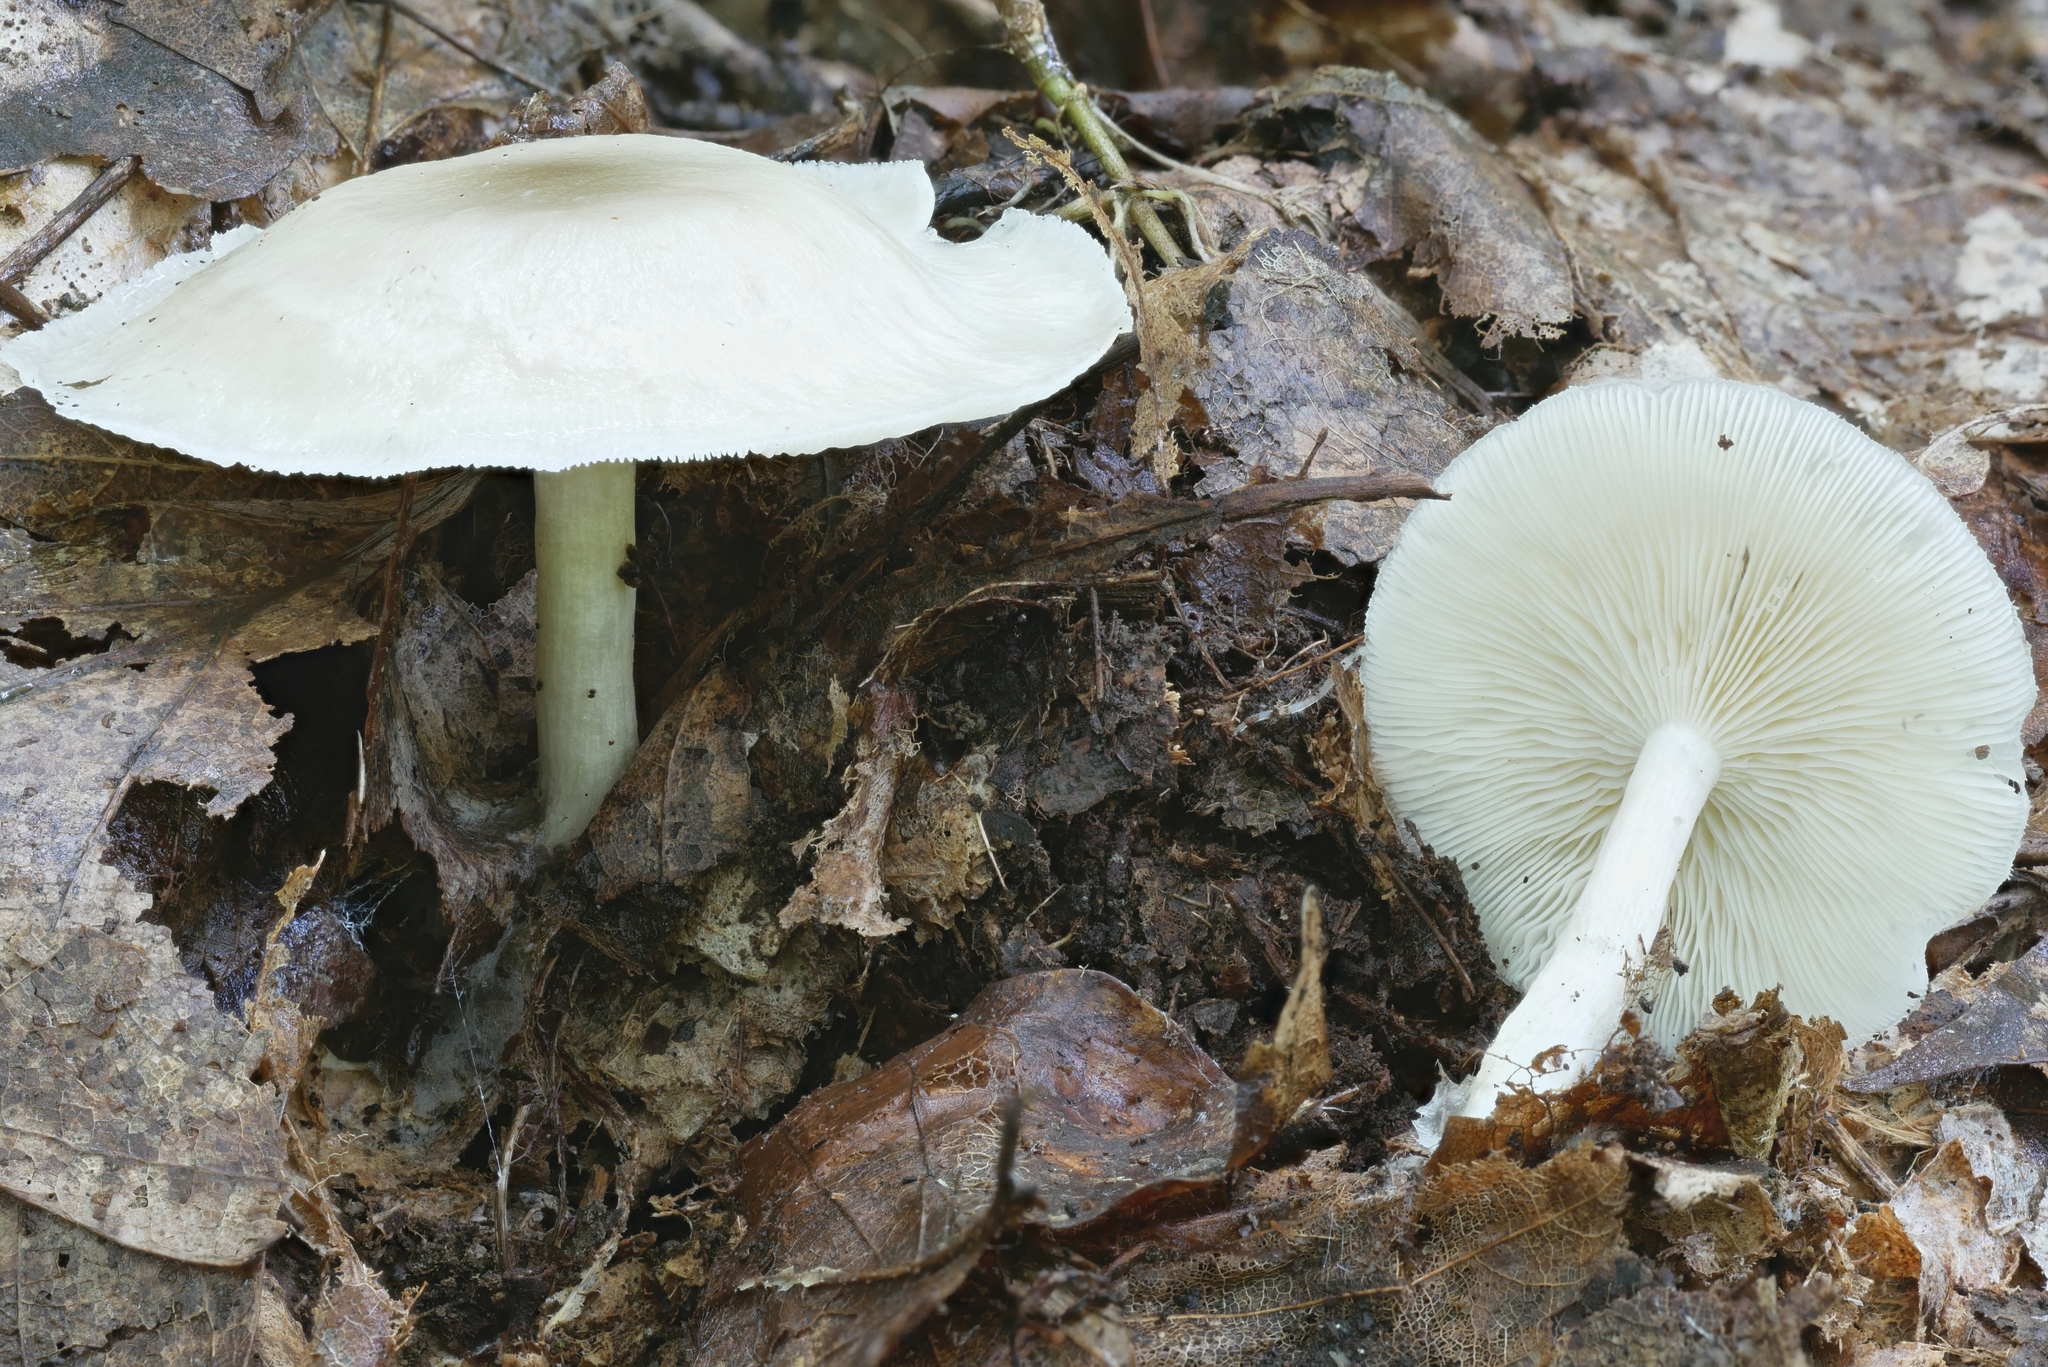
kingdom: Fungi
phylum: Basidiomycota
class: Agaricomycetes
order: Agaricales
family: Tricholomataceae
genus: Collybia
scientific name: Collybia
